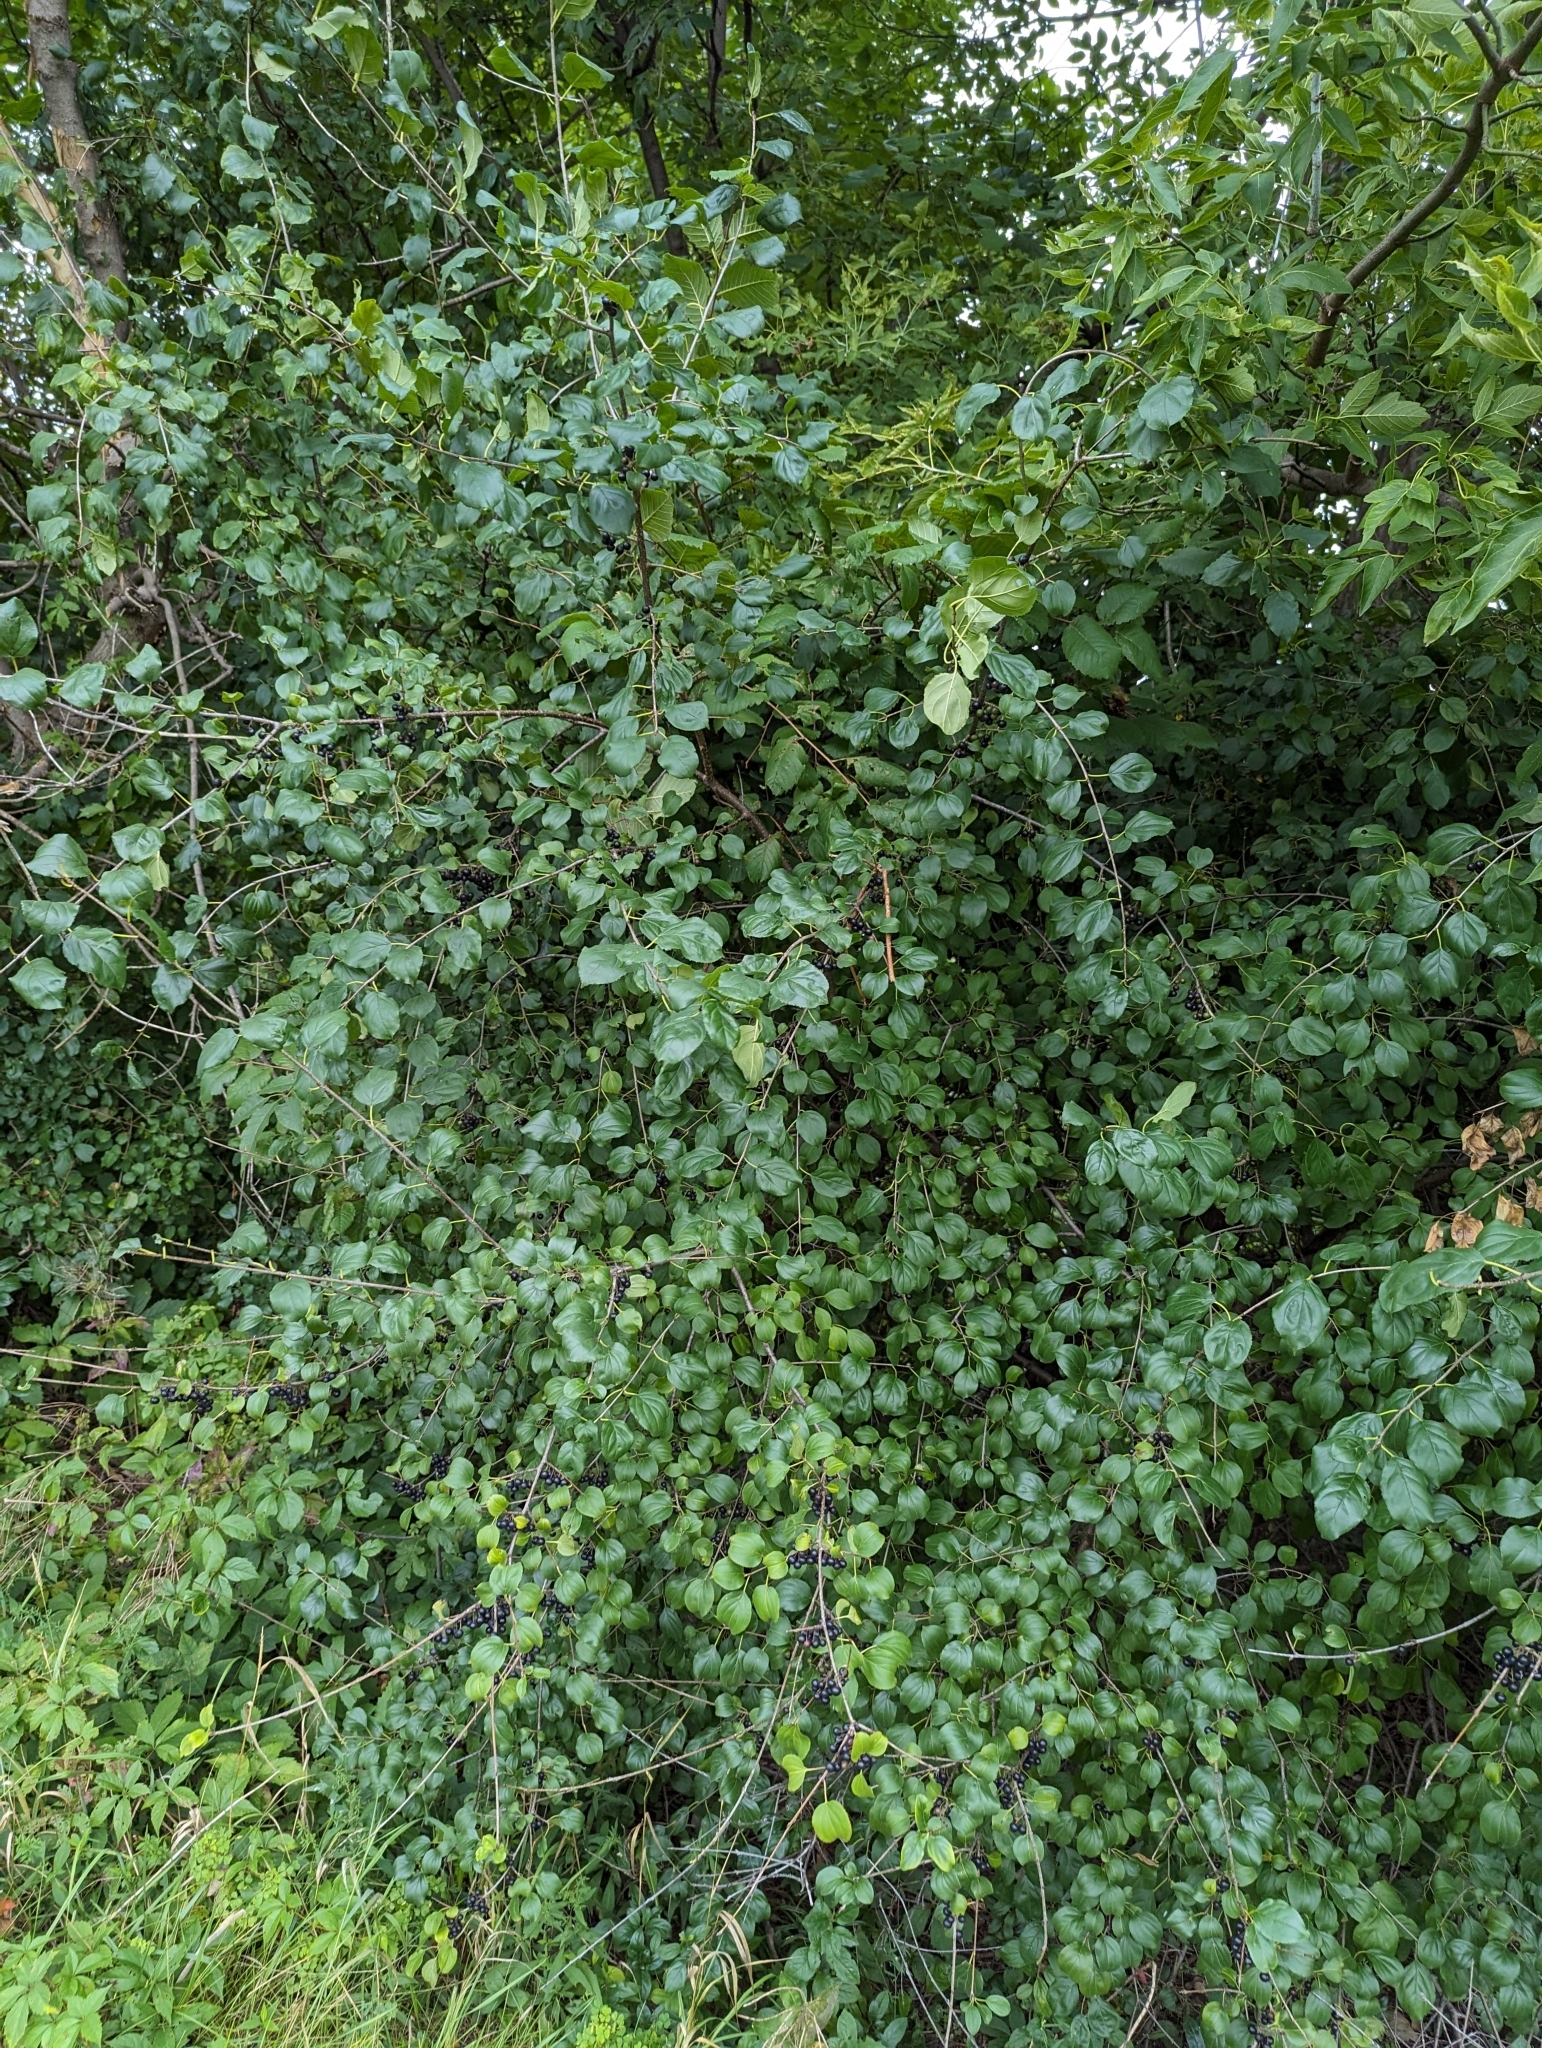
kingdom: Plantae
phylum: Tracheophyta
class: Magnoliopsida
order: Rosales
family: Rhamnaceae
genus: Rhamnus
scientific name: Rhamnus cathartica
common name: Common buckthorn
